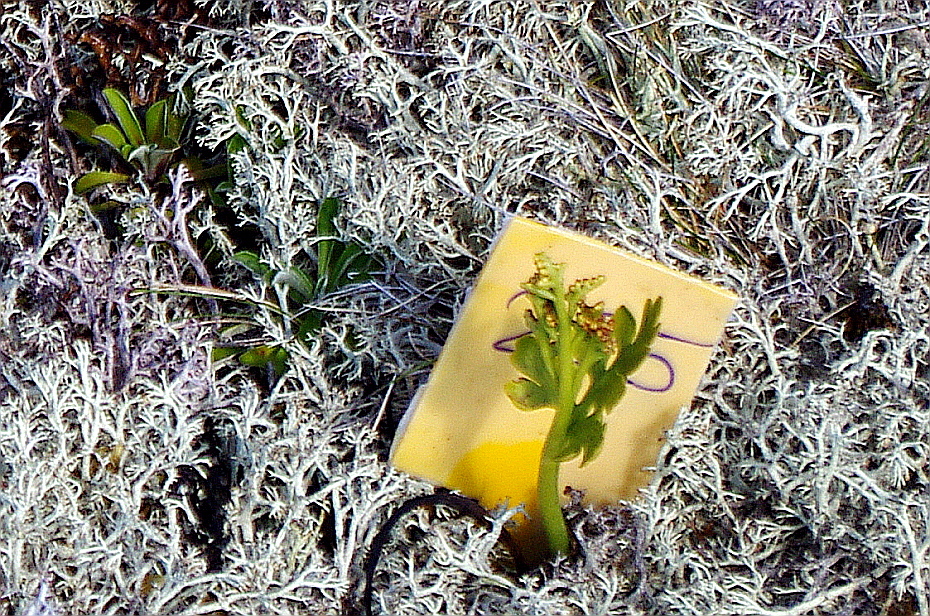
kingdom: Plantae
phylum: Tracheophyta
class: Polypodiopsida
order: Ophioglossales
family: Ophioglossaceae
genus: Botrychium
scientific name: Botrychium boreale
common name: Boreal moonwort
